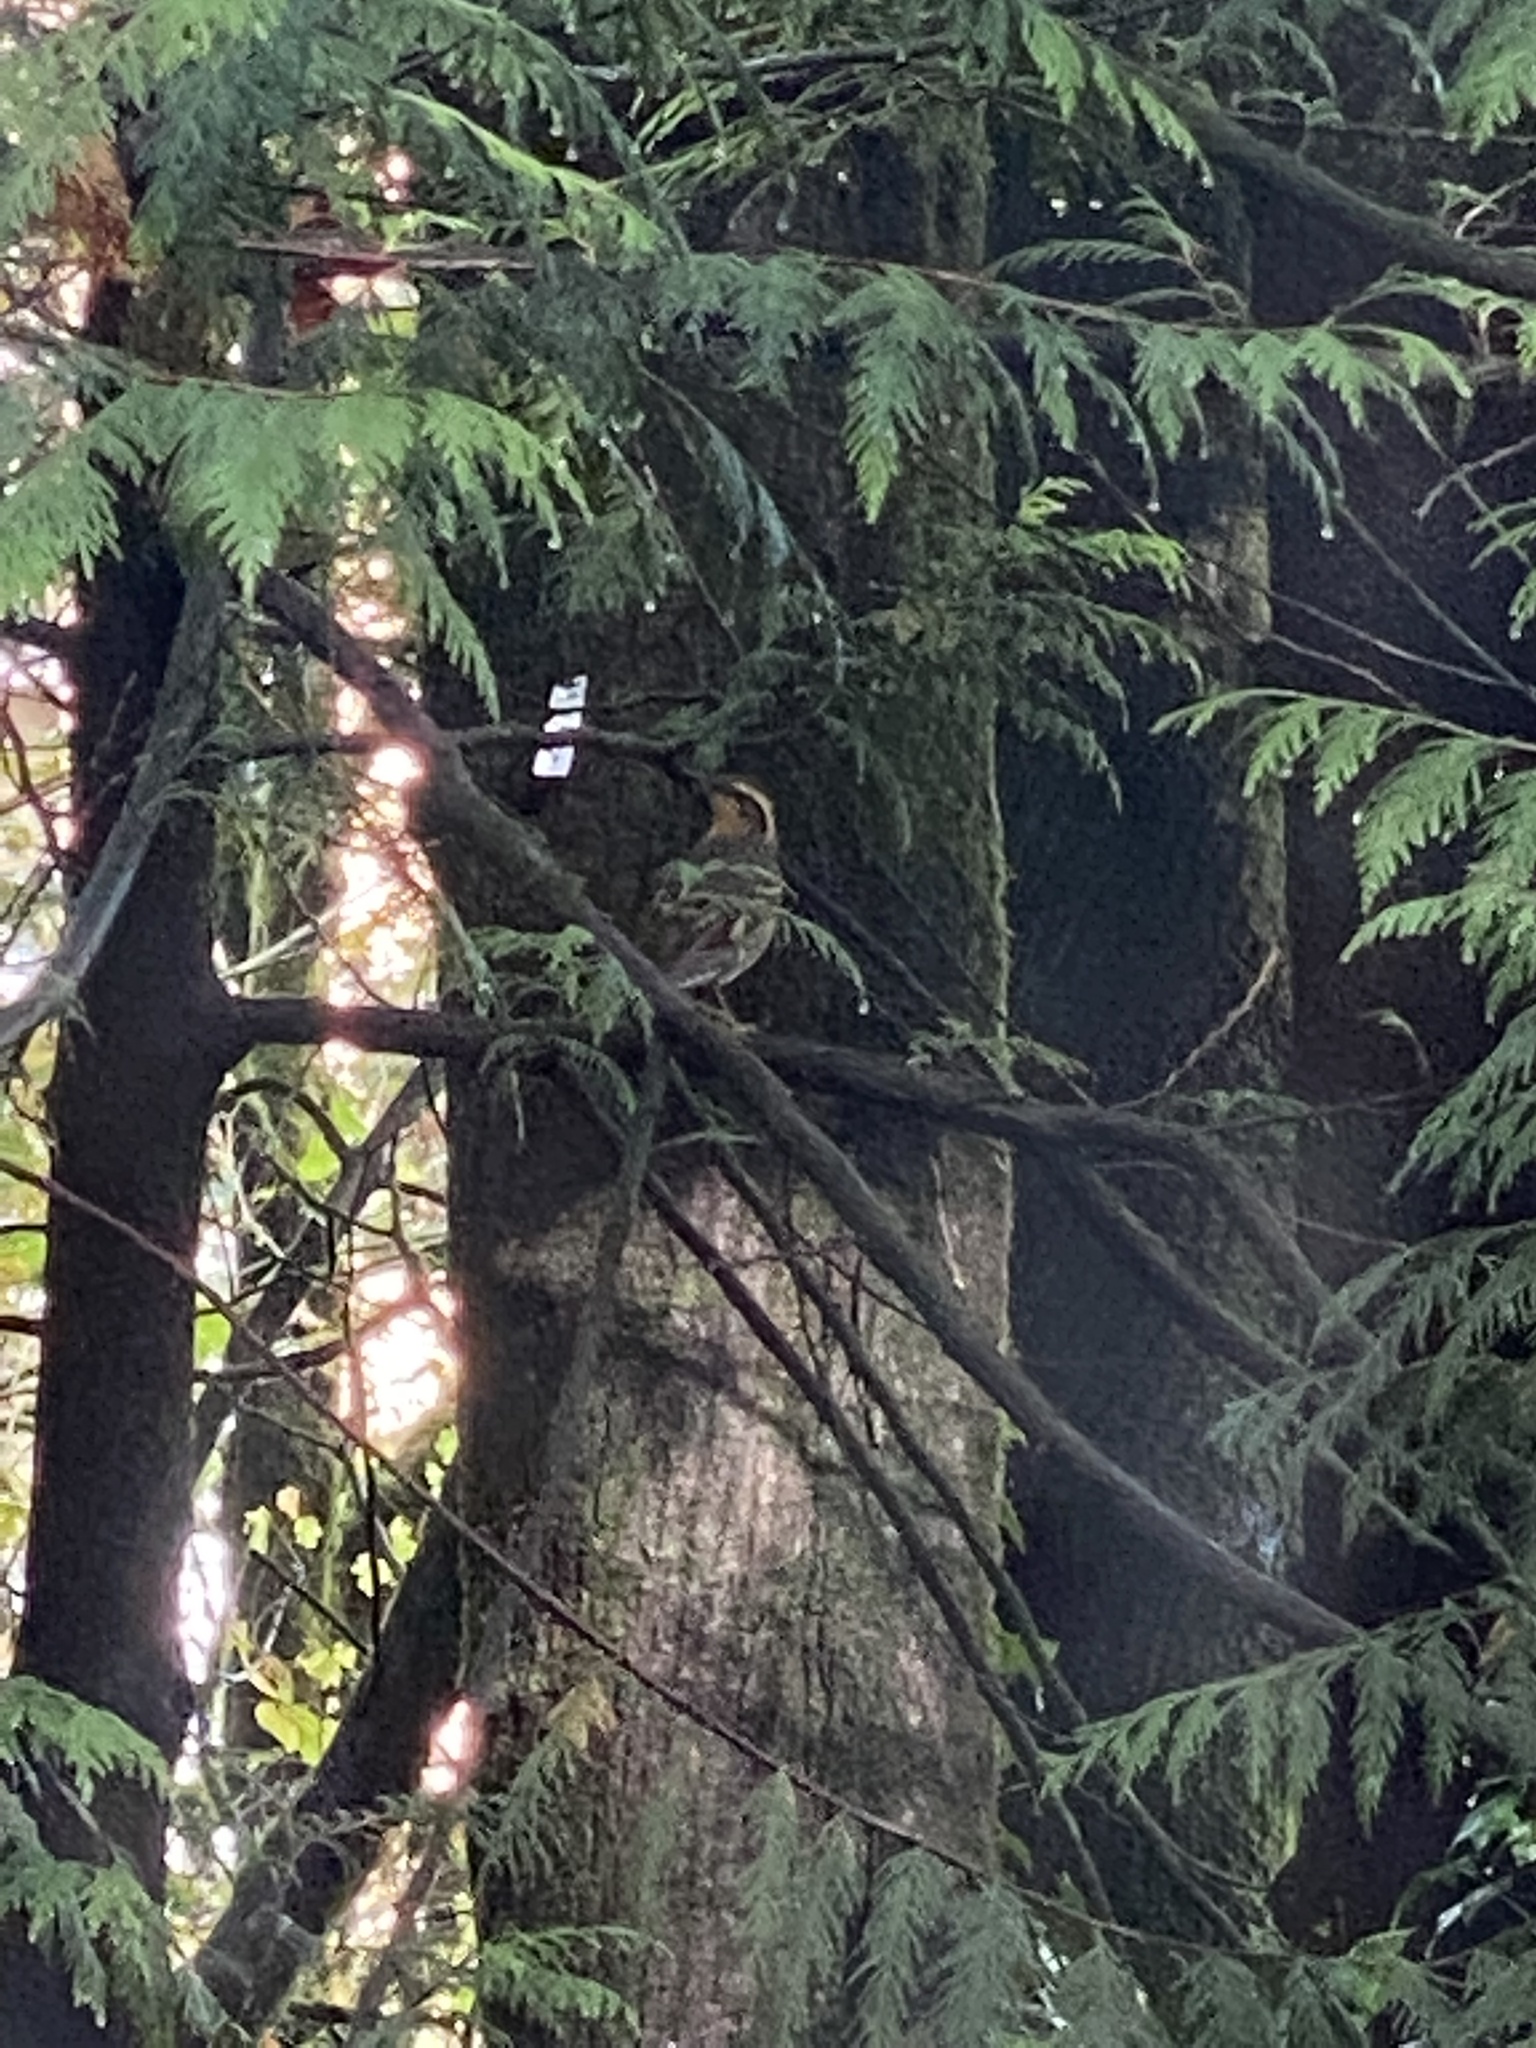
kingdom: Animalia
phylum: Chordata
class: Aves
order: Passeriformes
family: Turdidae
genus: Ixoreus
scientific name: Ixoreus naevius
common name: Varied thrush
